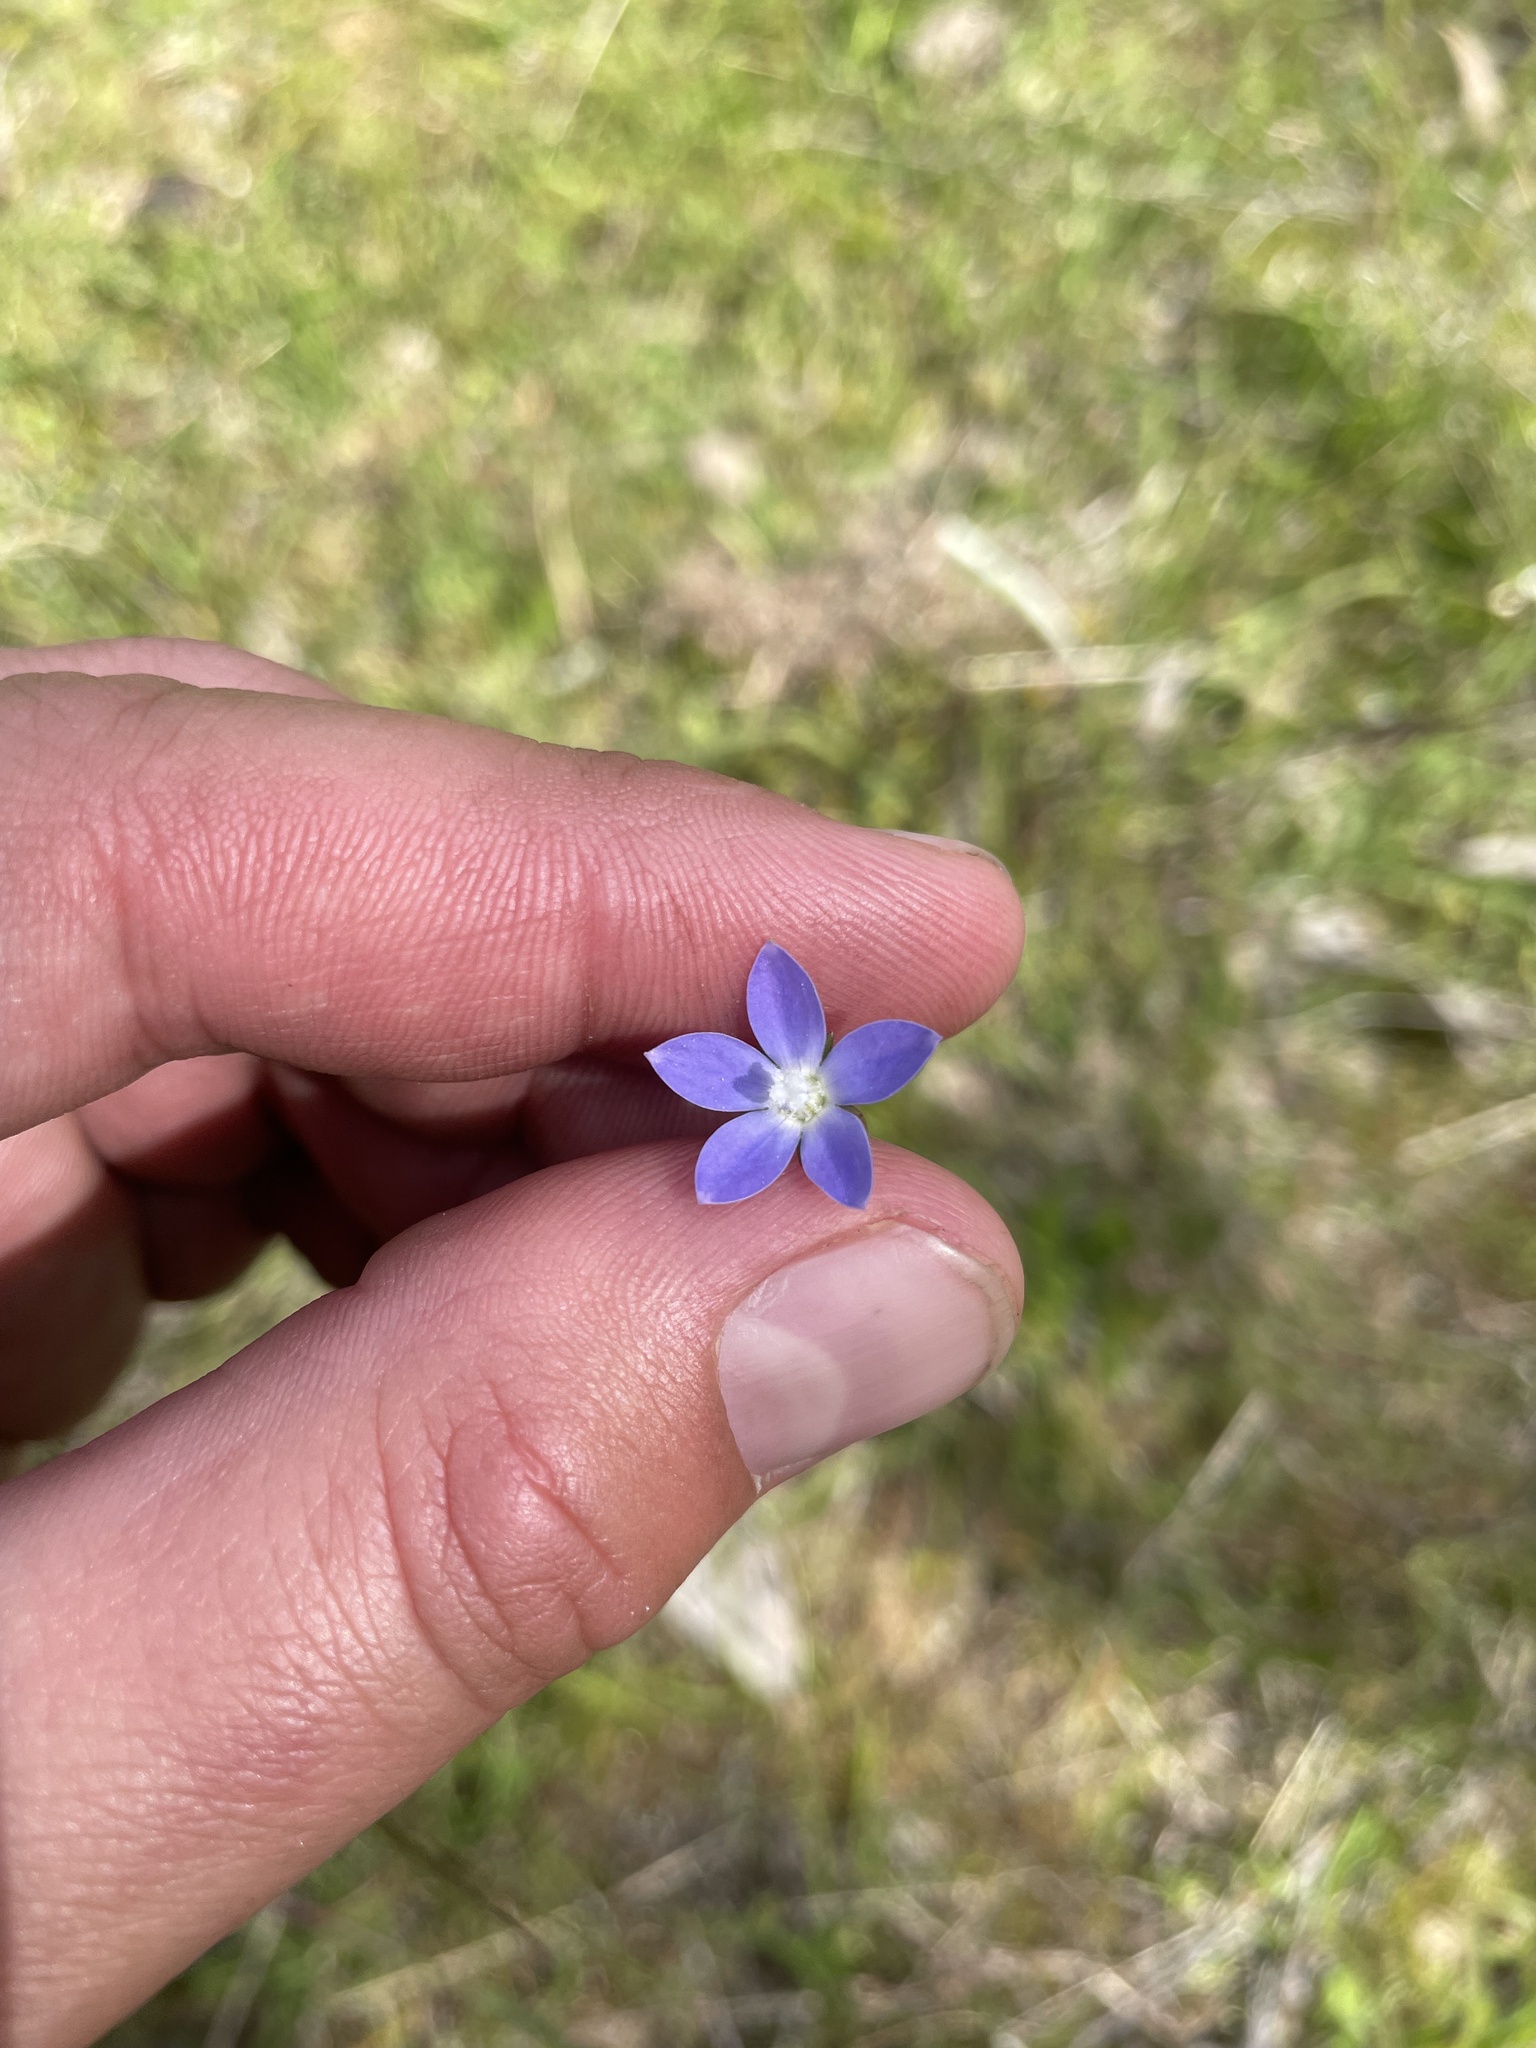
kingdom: Plantae
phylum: Tracheophyta
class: Magnoliopsida
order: Asterales
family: Campanulaceae
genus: Wahlenbergia
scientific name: Wahlenbergia
